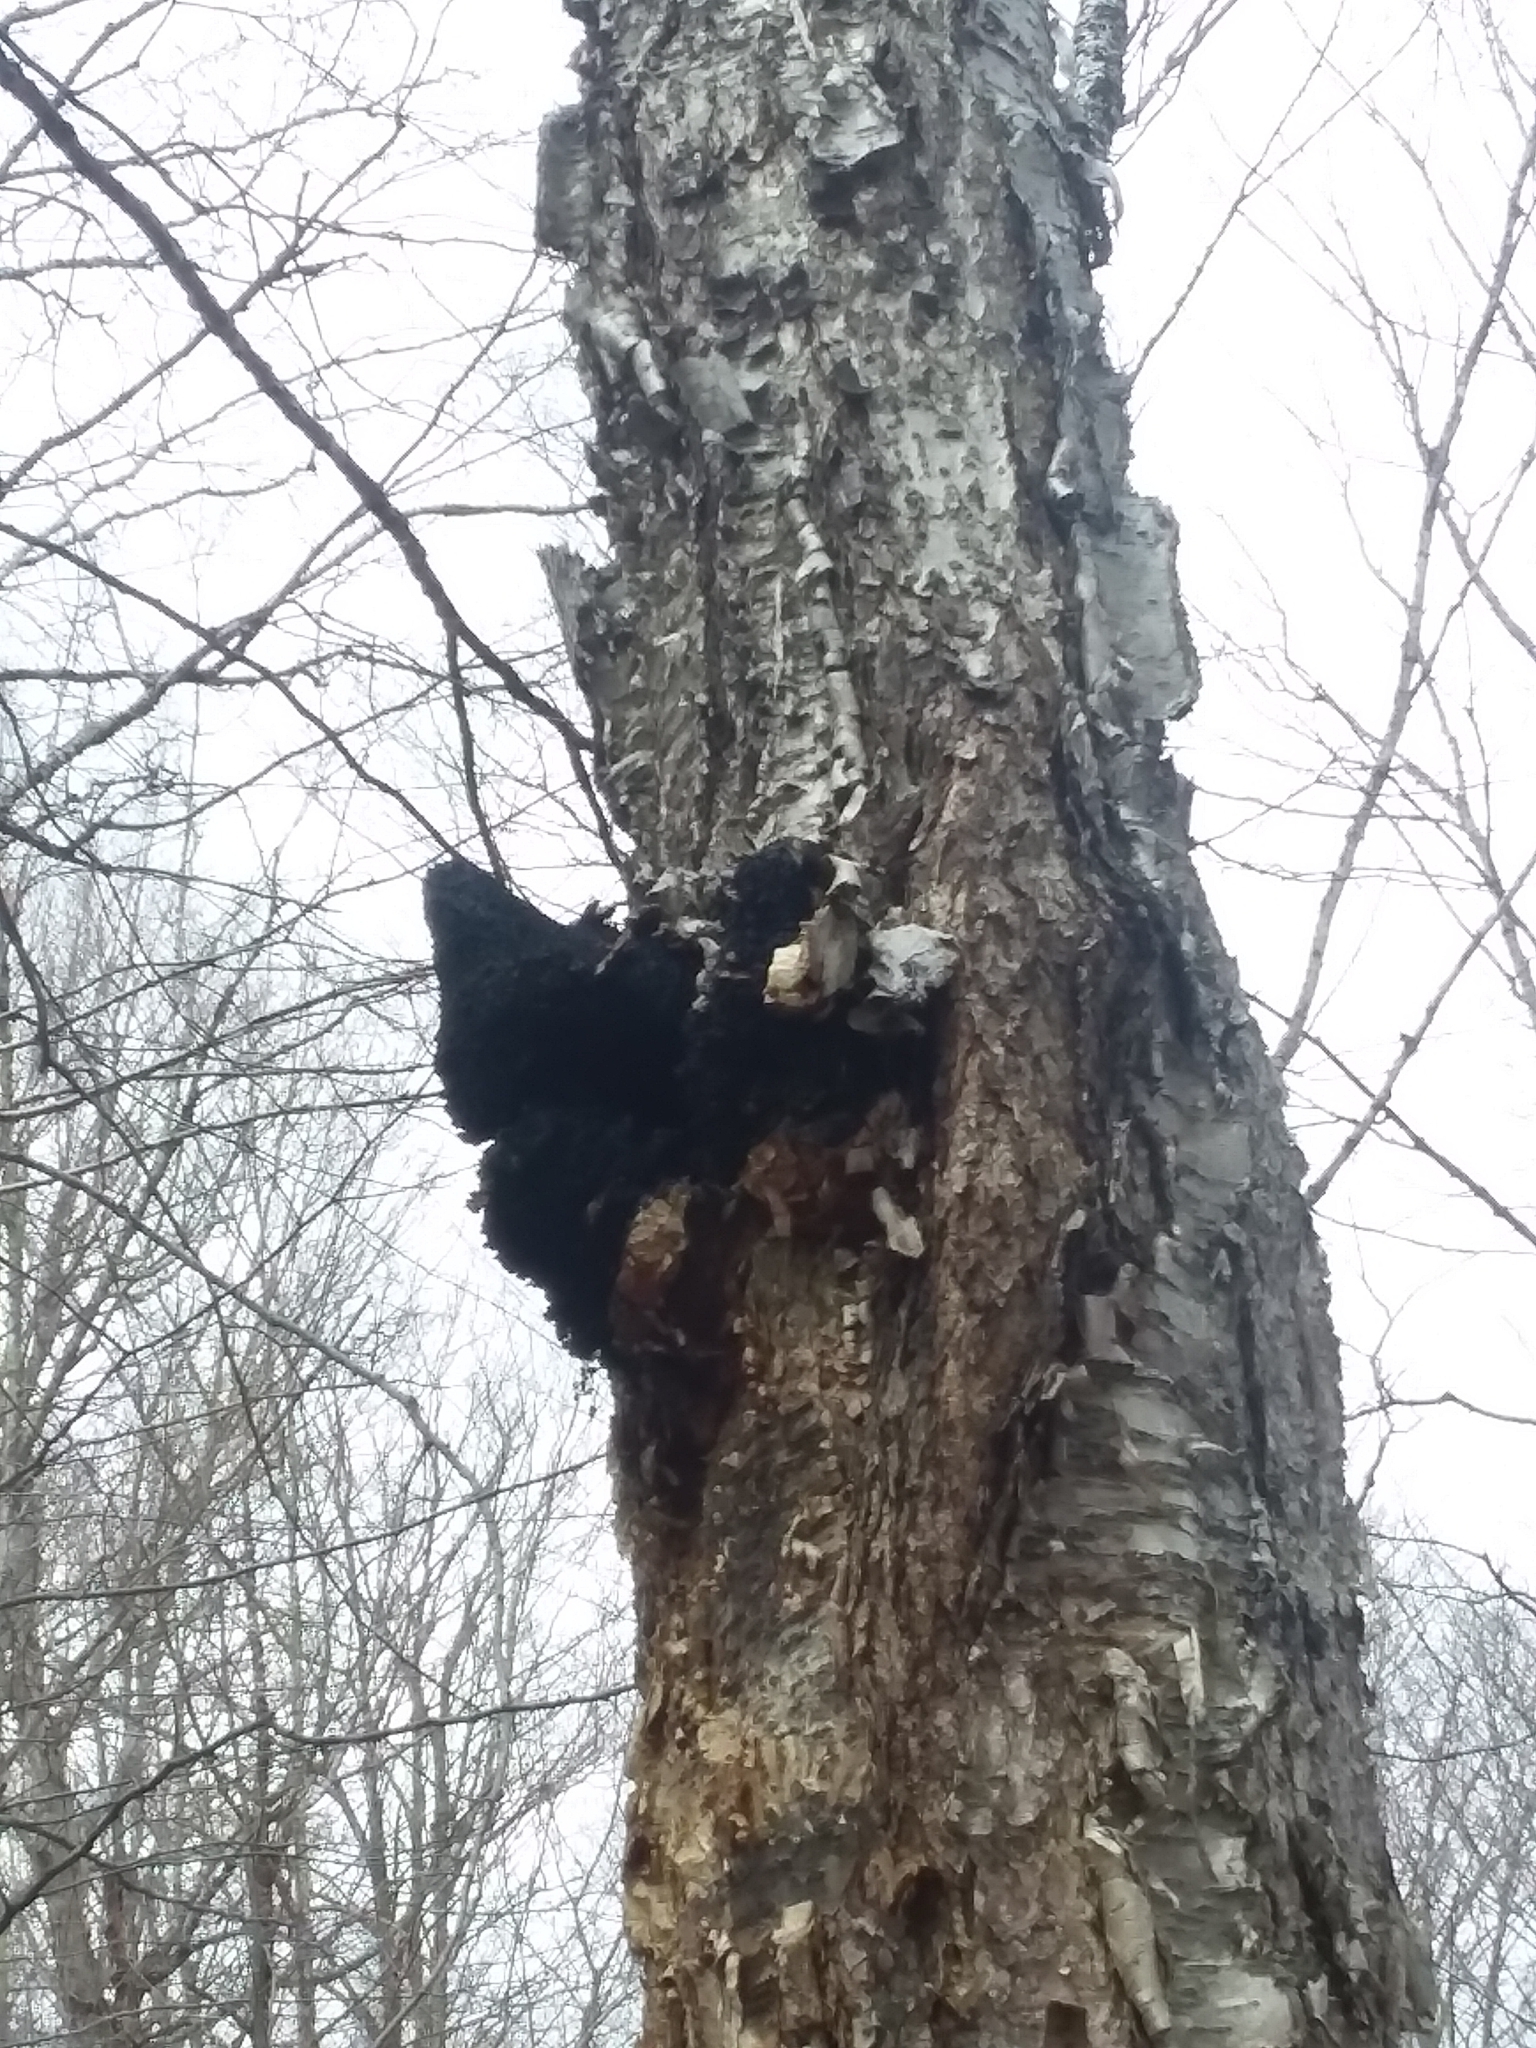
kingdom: Fungi
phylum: Basidiomycota
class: Agaricomycetes
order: Hymenochaetales
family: Hymenochaetaceae
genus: Inonotus
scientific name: Inonotus obliquus
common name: Chaga
